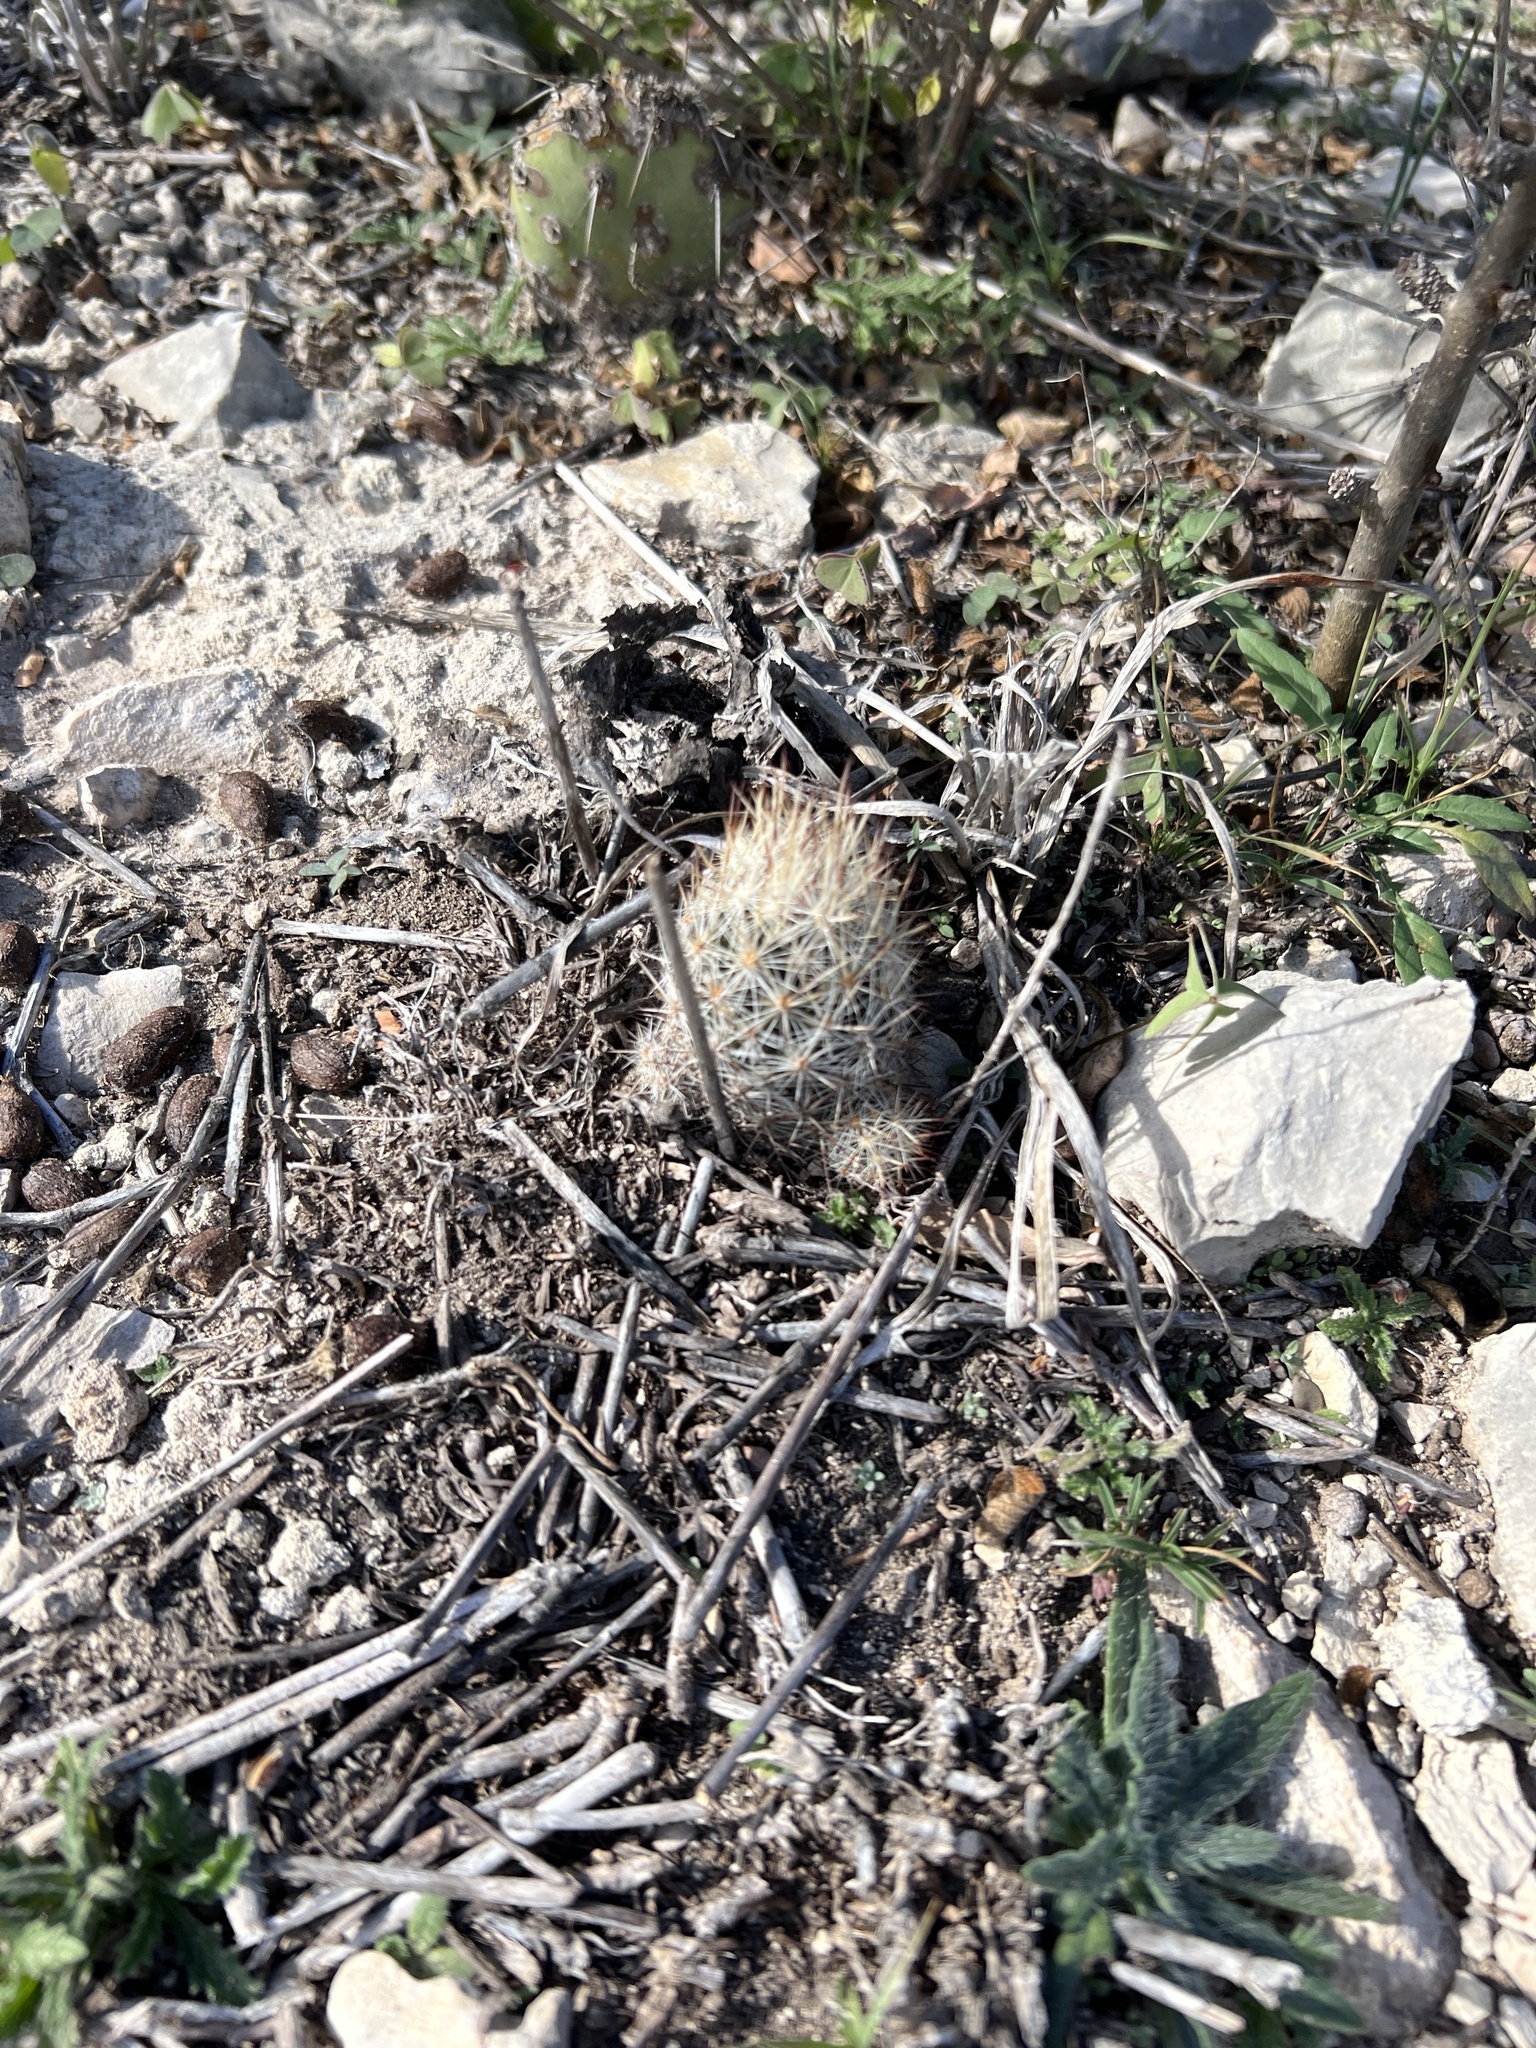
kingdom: Plantae
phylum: Tracheophyta
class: Magnoliopsida
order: Caryophyllales
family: Cactaceae
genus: Pelecyphora
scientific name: Pelecyphora emskoetteriana
